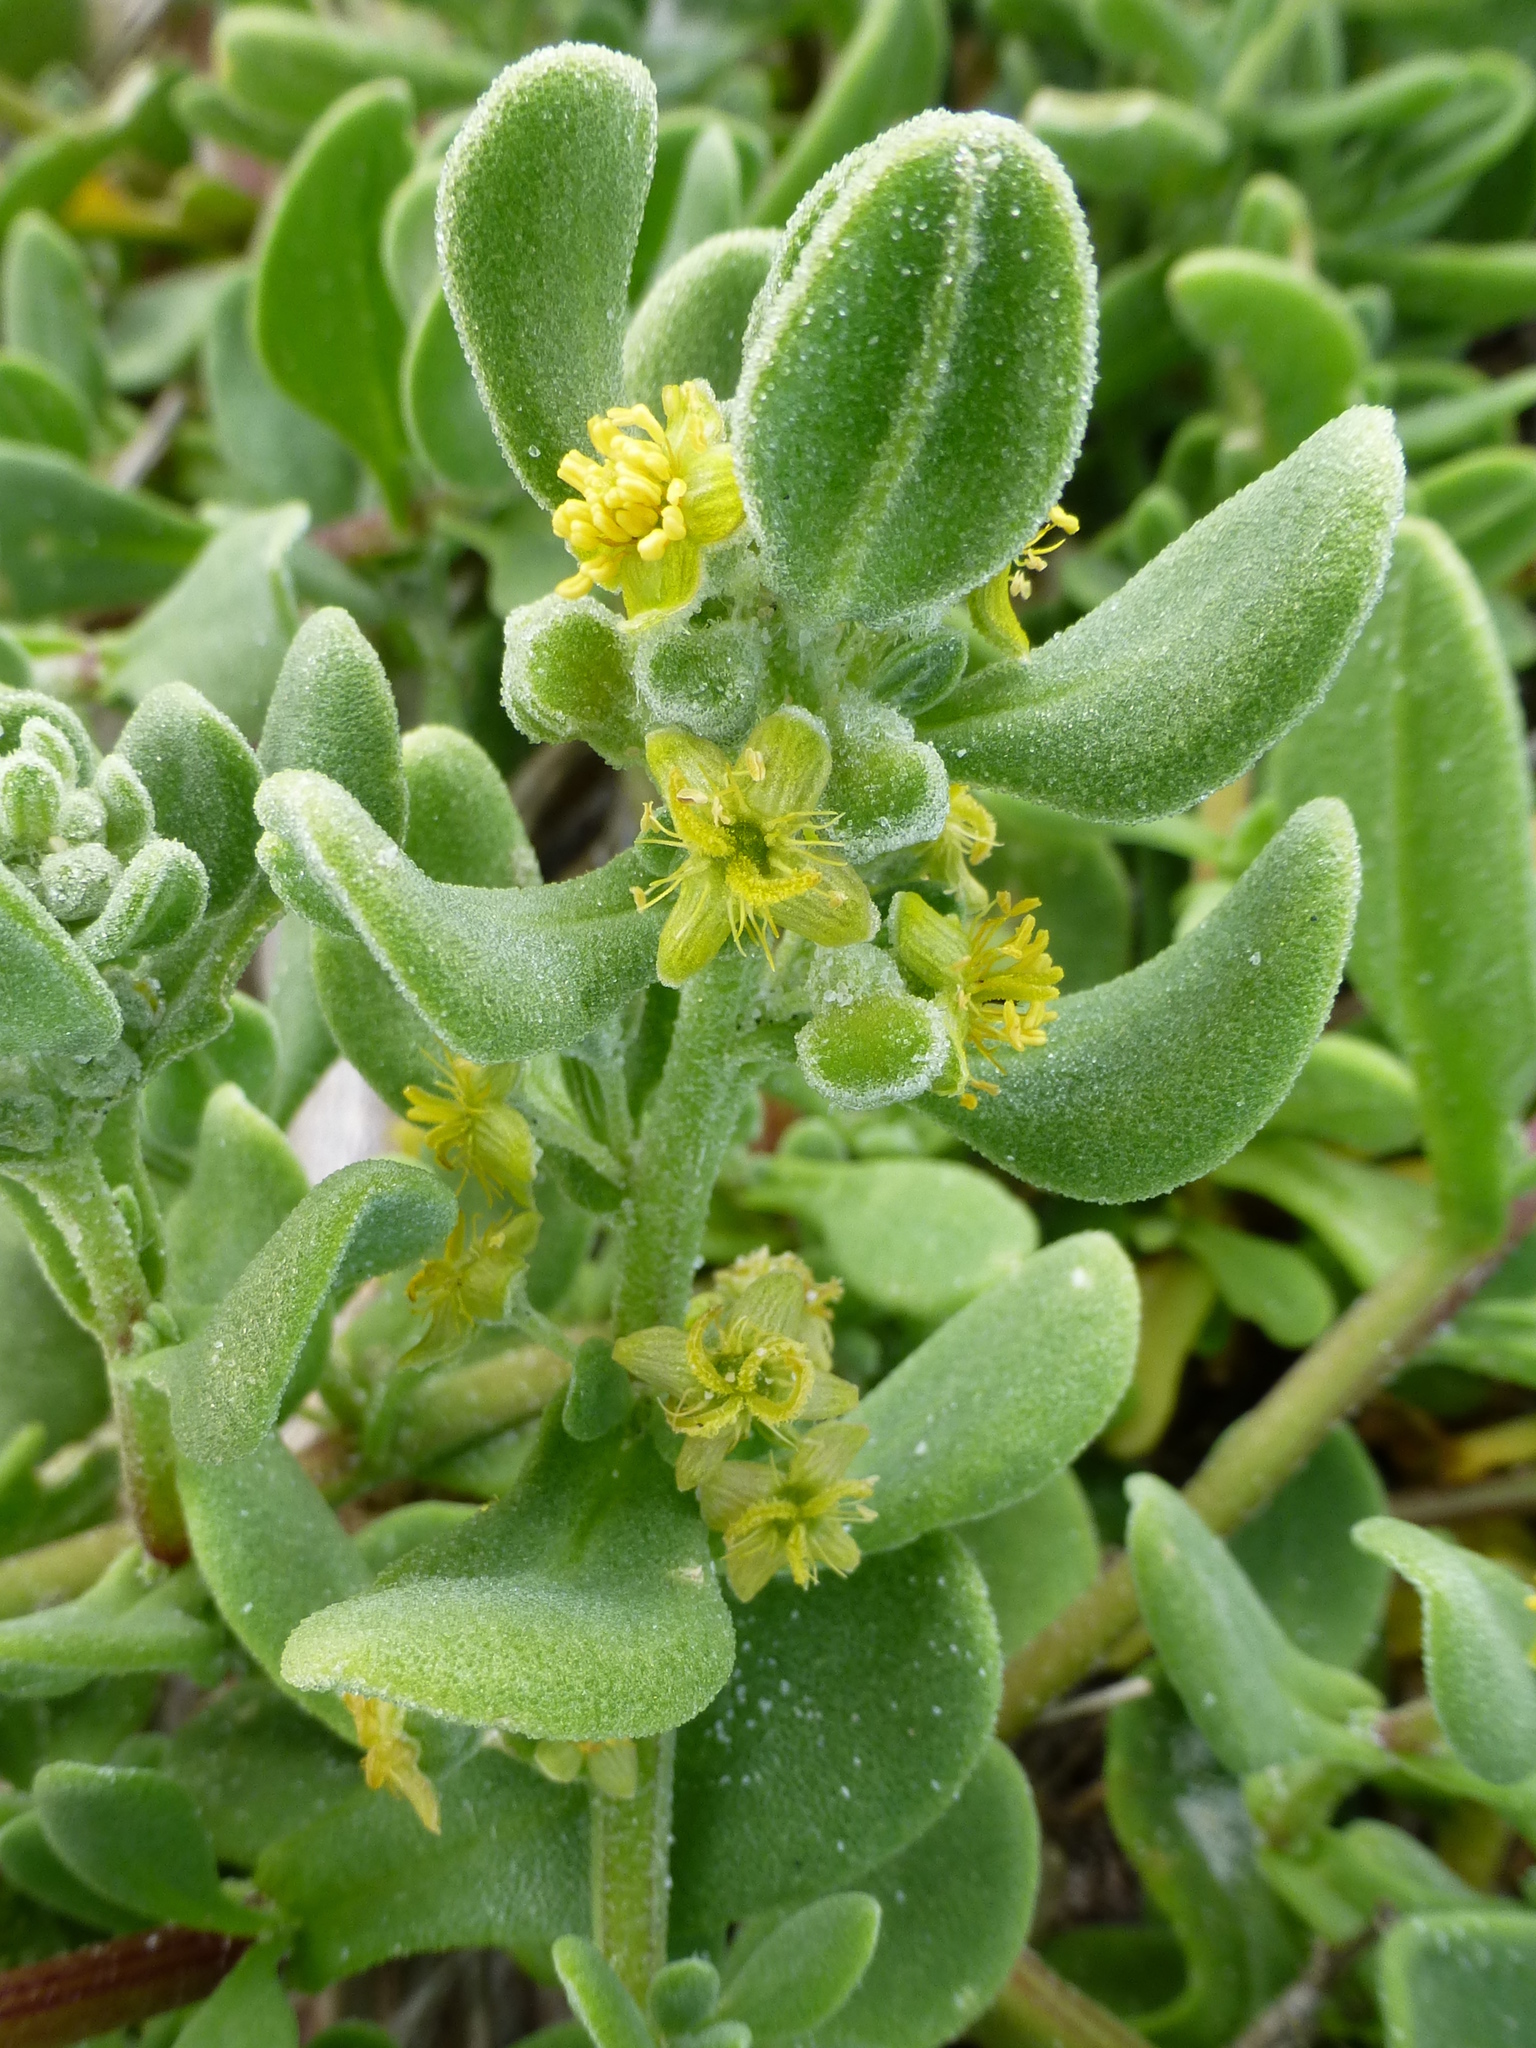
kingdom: Plantae
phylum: Tracheophyta
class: Magnoliopsida
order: Caryophyllales
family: Aizoaceae
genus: Tetragonia
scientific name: Tetragonia decumbens
